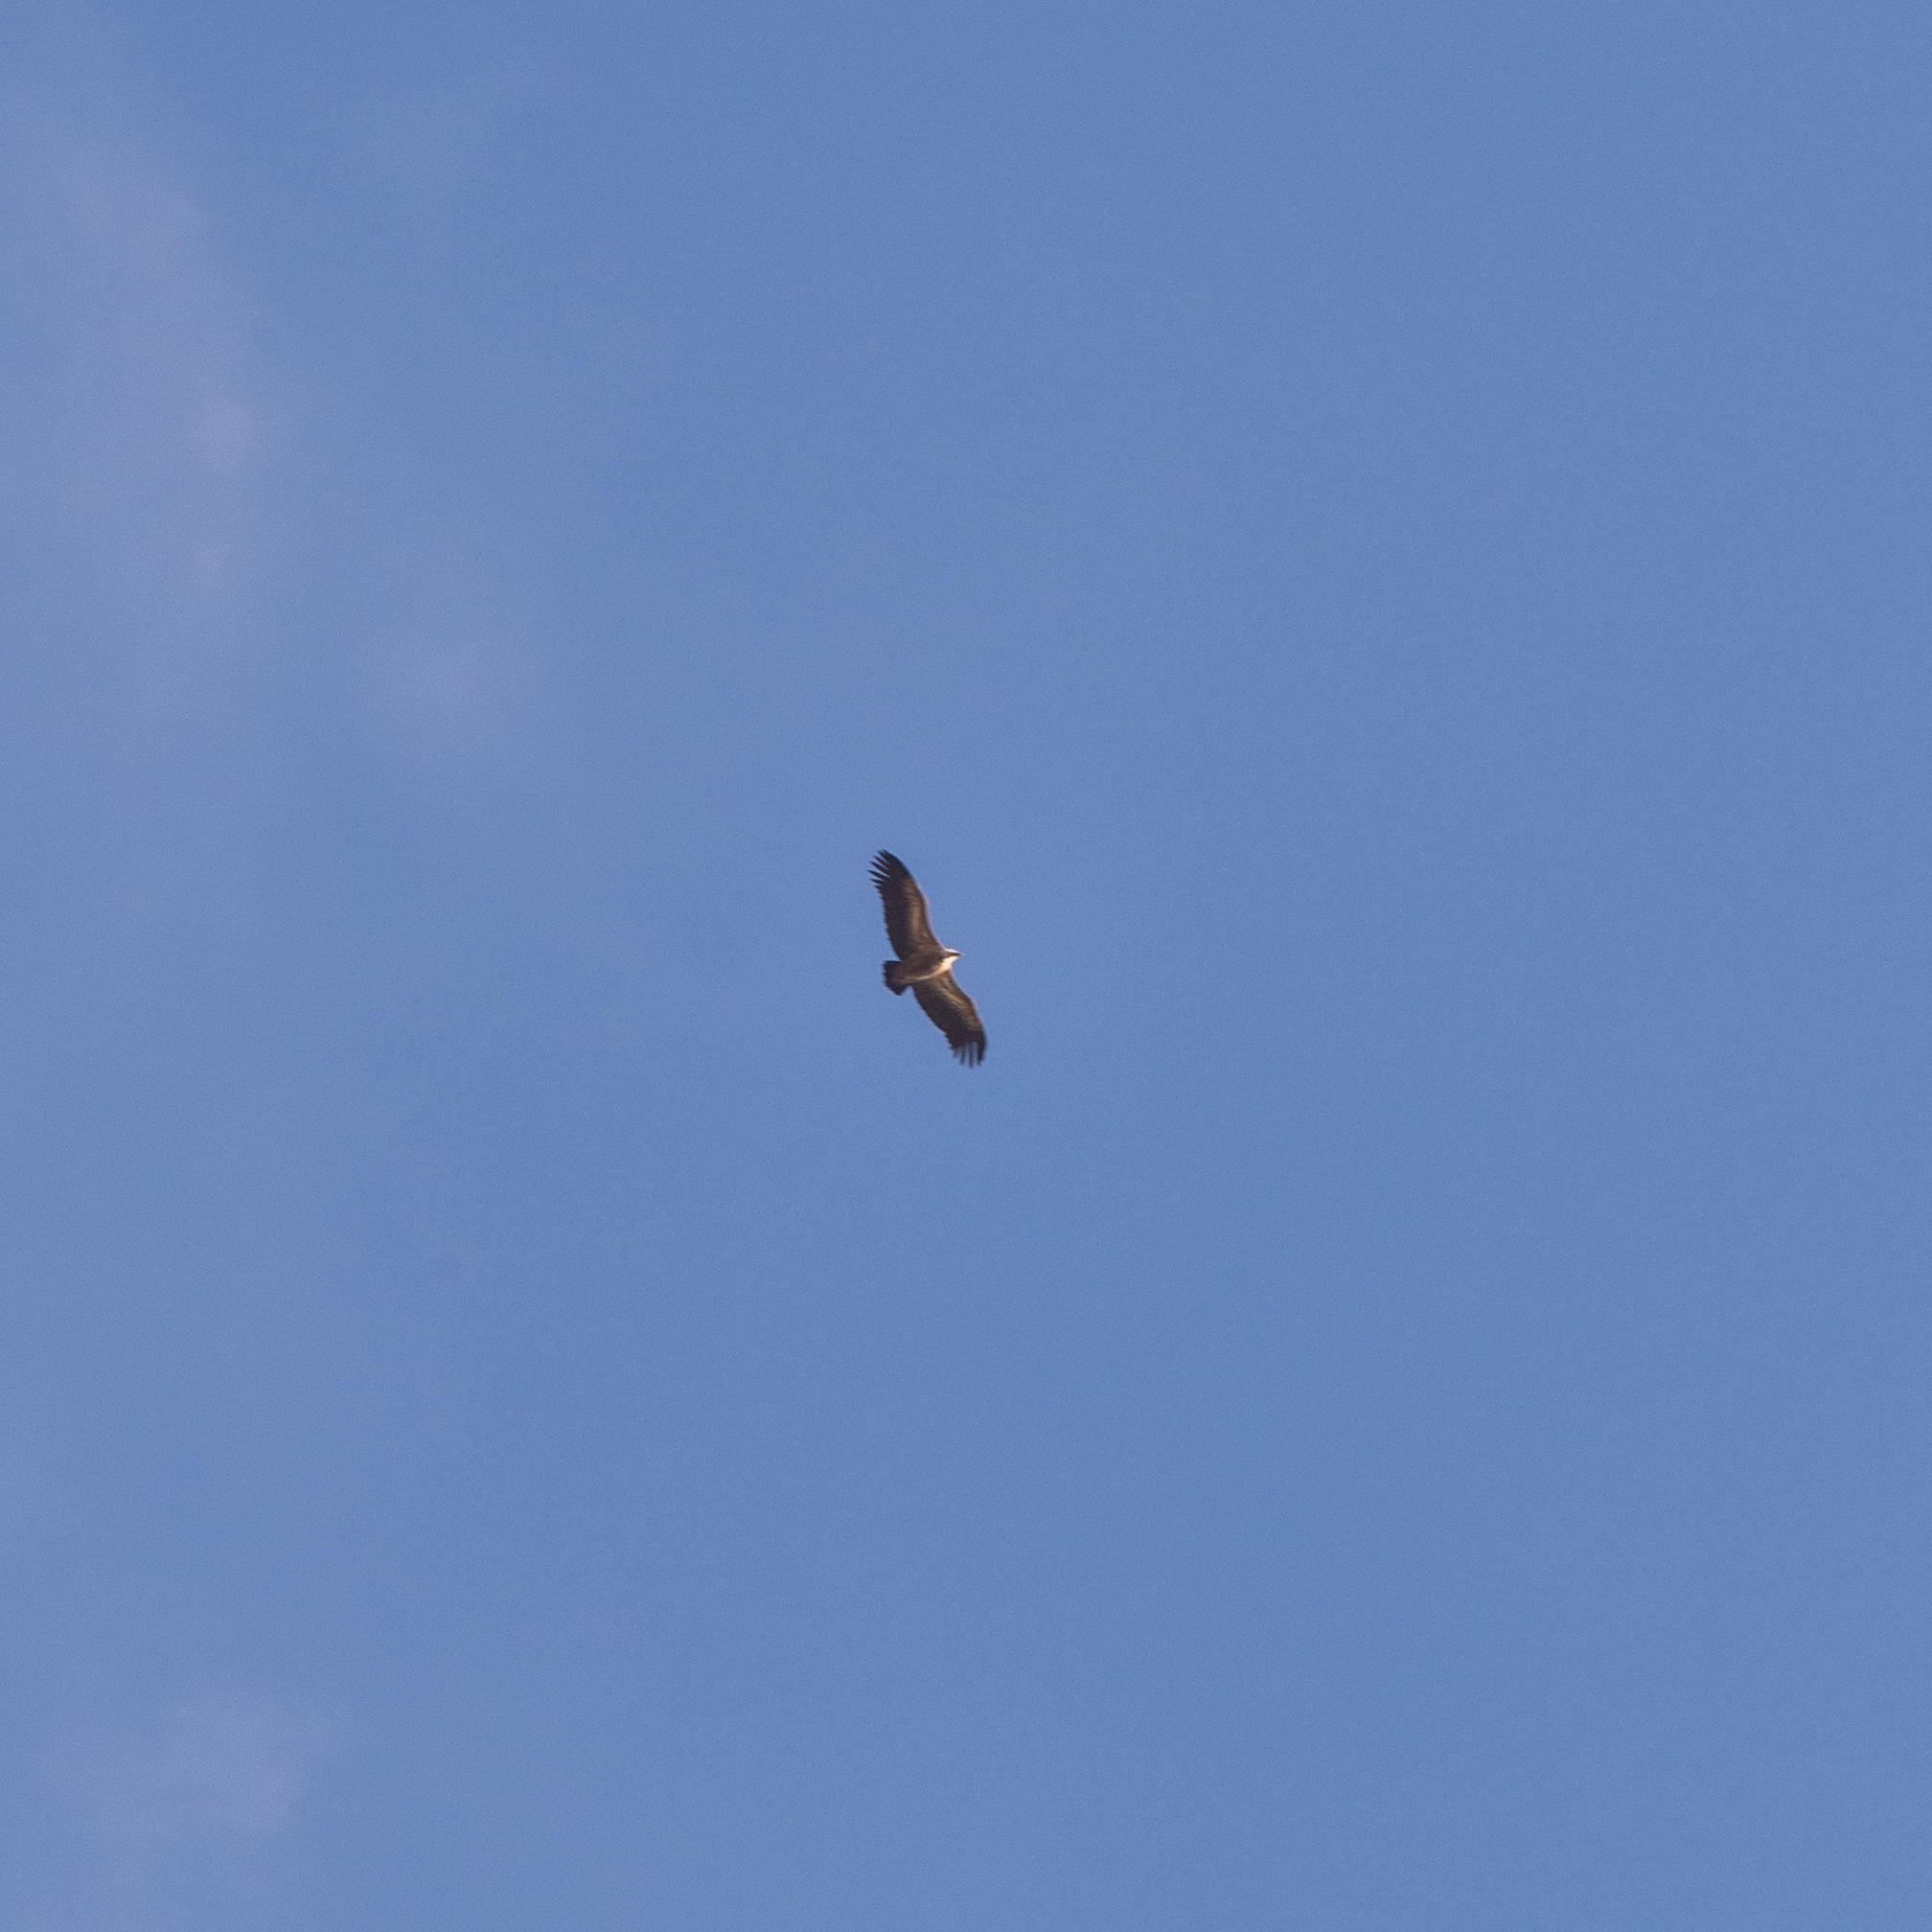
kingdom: Animalia
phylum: Chordata
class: Aves
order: Accipitriformes
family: Accipitridae
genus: Gyps
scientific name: Gyps fulvus
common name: Griffon vulture
